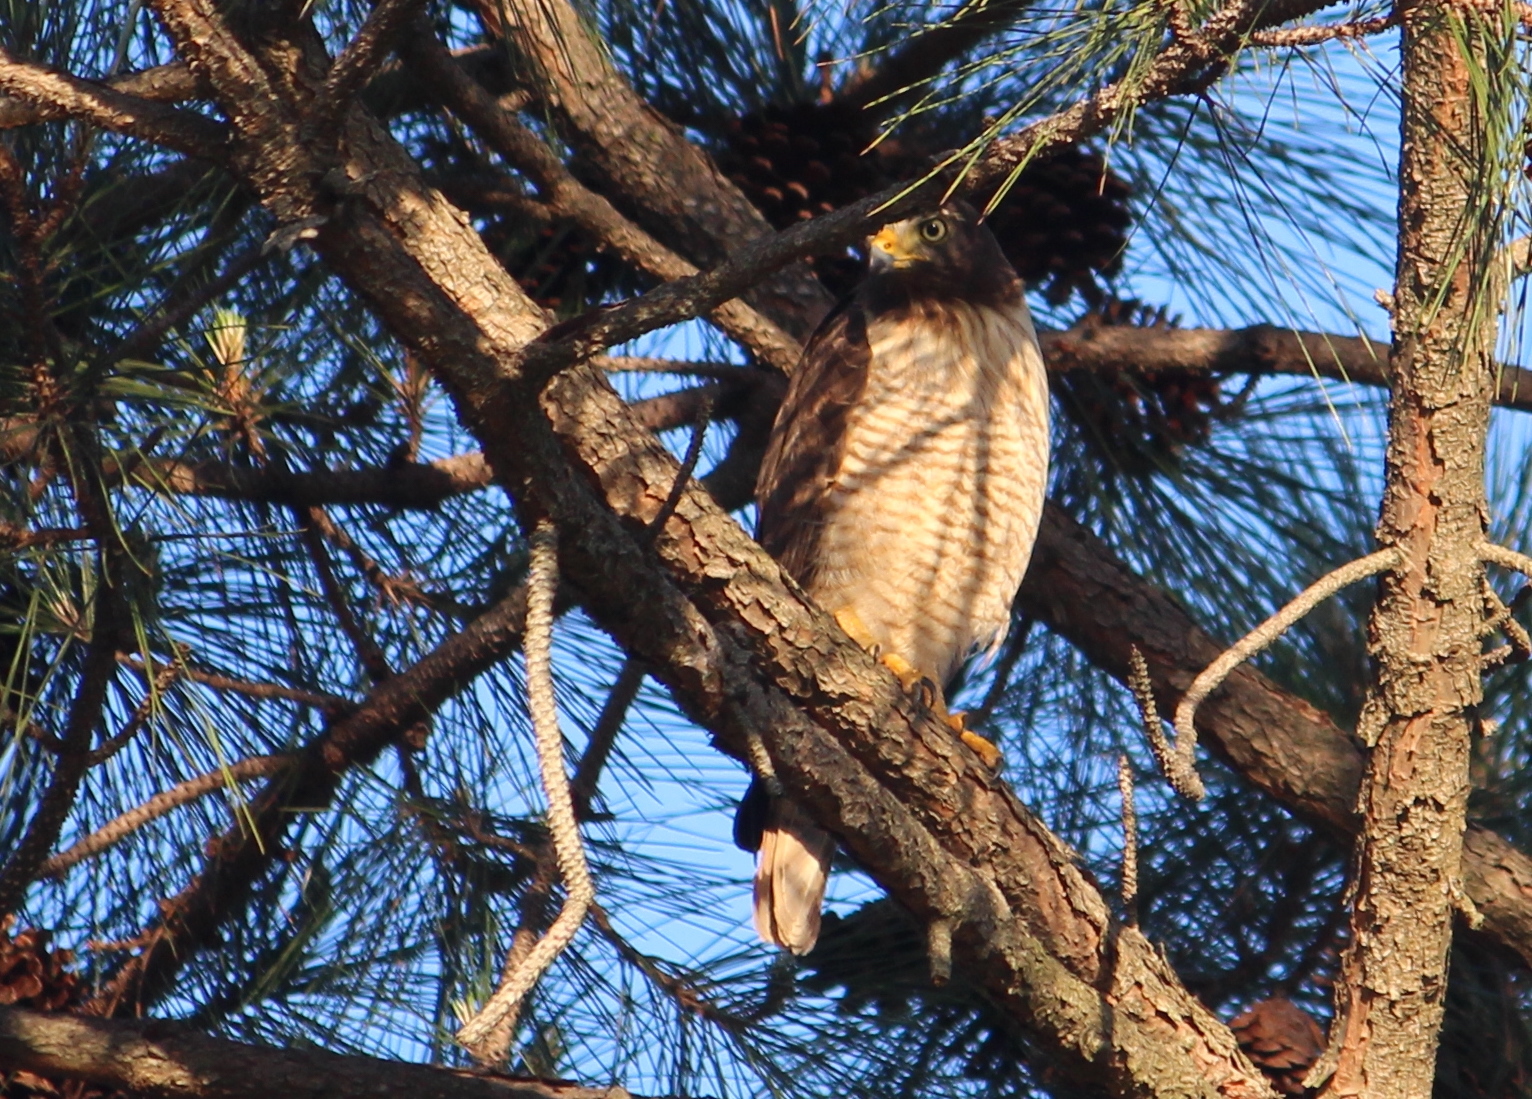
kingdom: Animalia
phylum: Chordata
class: Aves
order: Accipitriformes
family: Accipitridae
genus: Rupornis
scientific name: Rupornis magnirostris
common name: Roadside hawk
